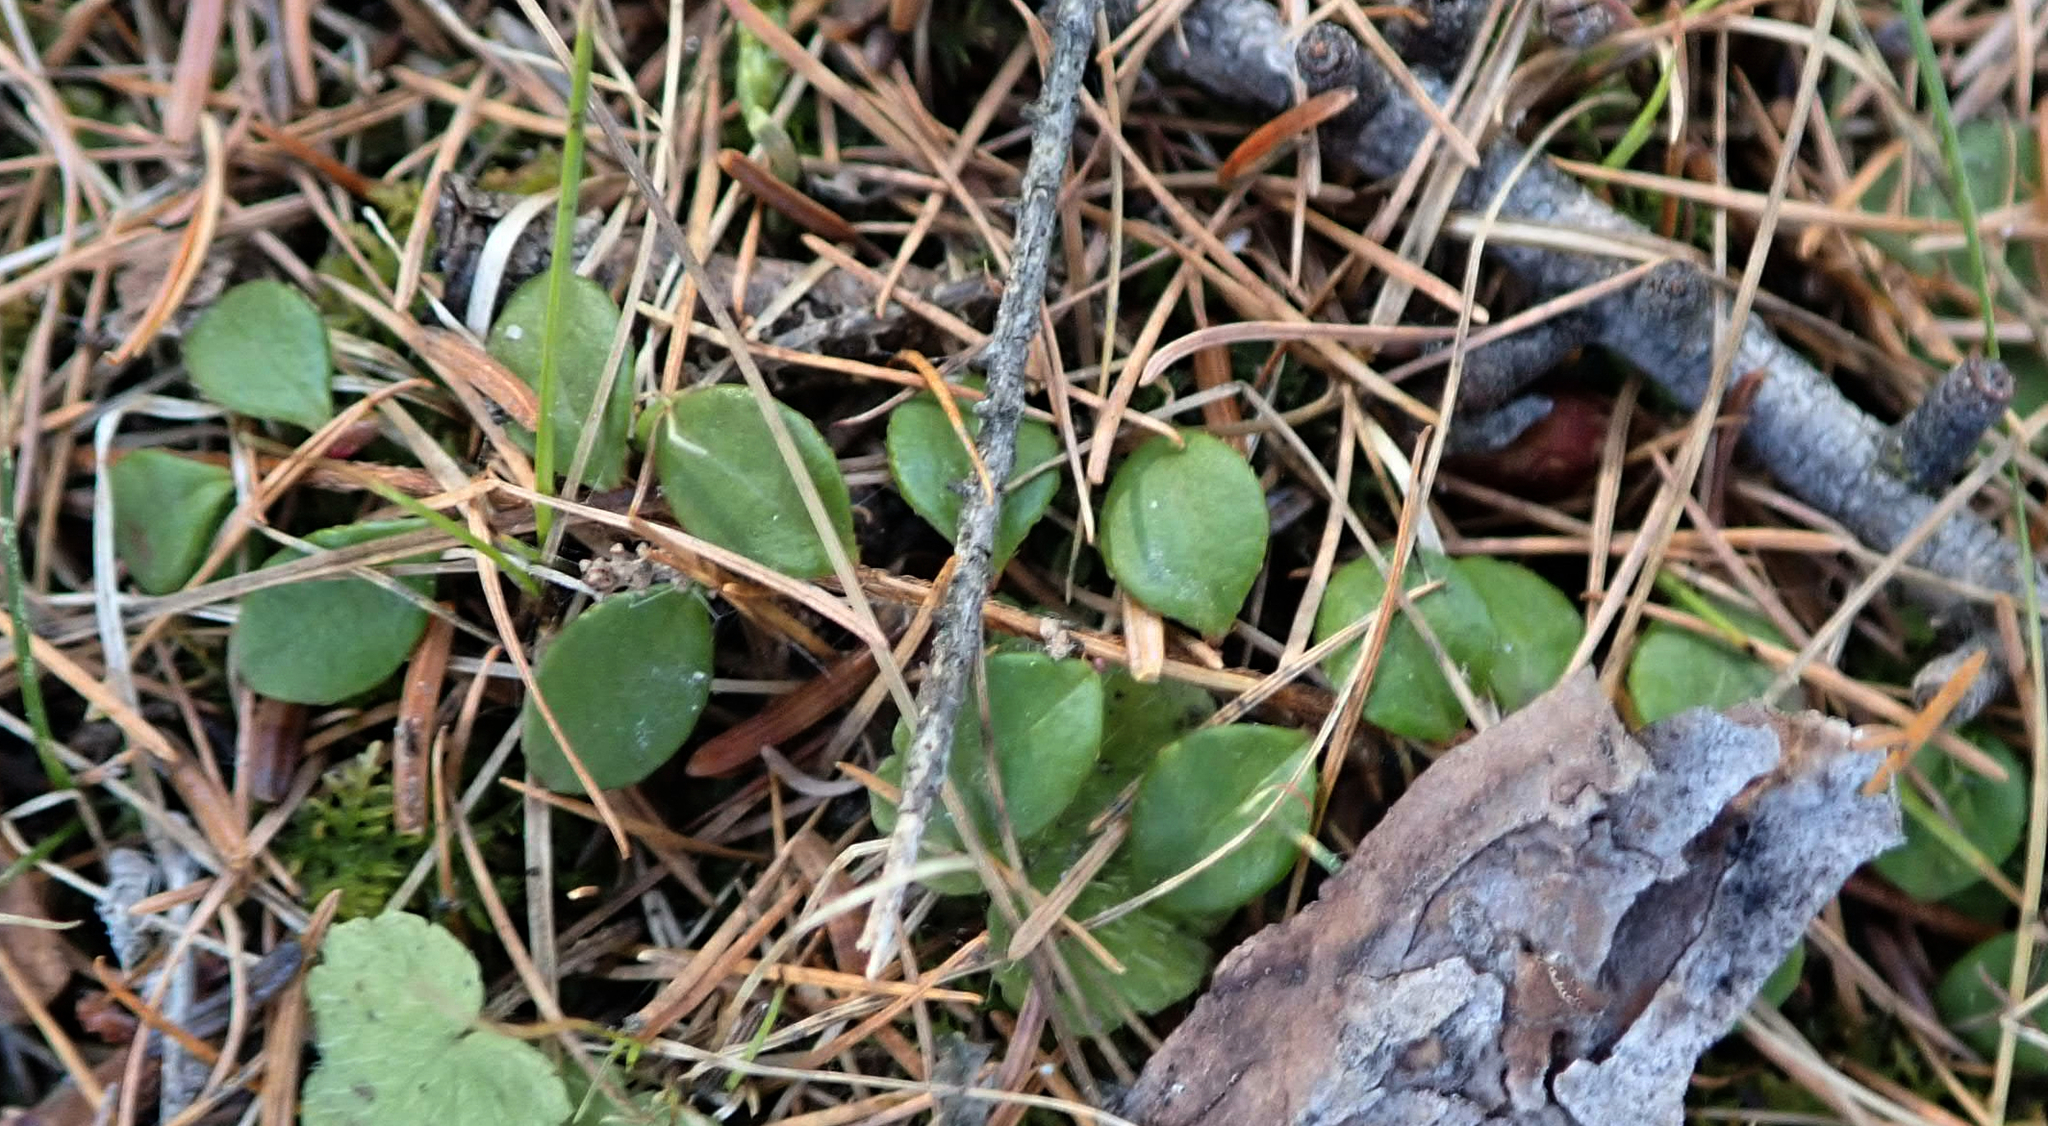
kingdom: Plantae
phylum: Tracheophyta
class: Magnoliopsida
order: Ericales
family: Ericaceae
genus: Gaultheria
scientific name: Gaultheria hispidula
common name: Cancer wintergreen
